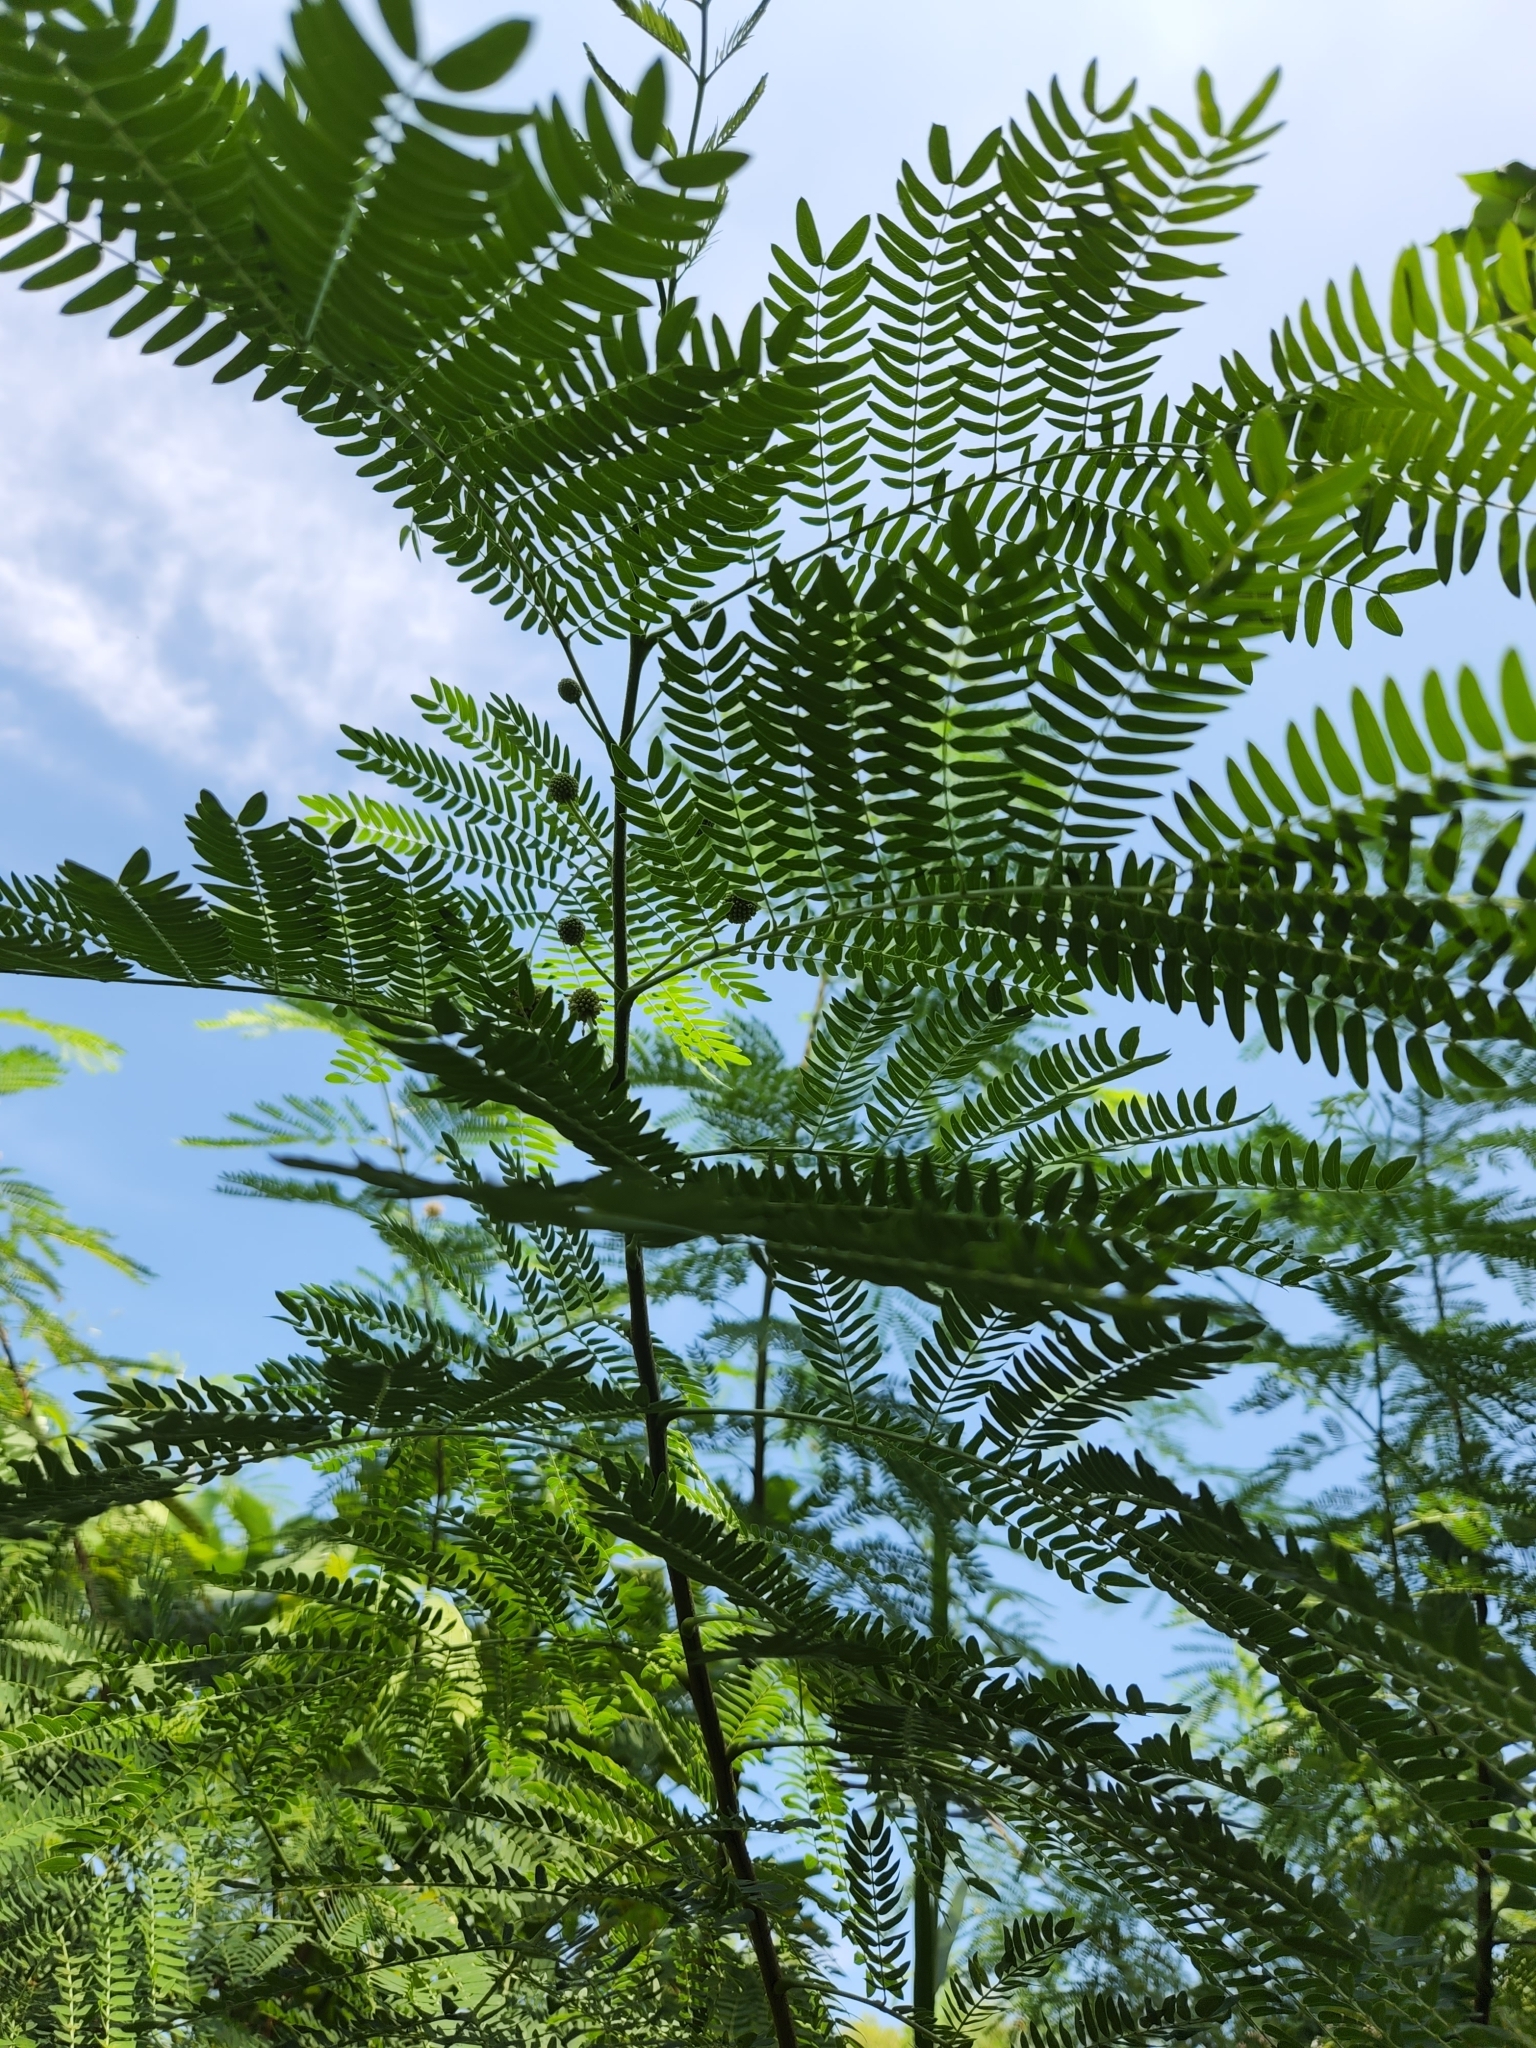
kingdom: Plantae
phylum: Tracheophyta
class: Magnoliopsida
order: Fabales
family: Fabaceae
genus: Leucaena
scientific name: Leucaena leucocephala
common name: White leadtree
